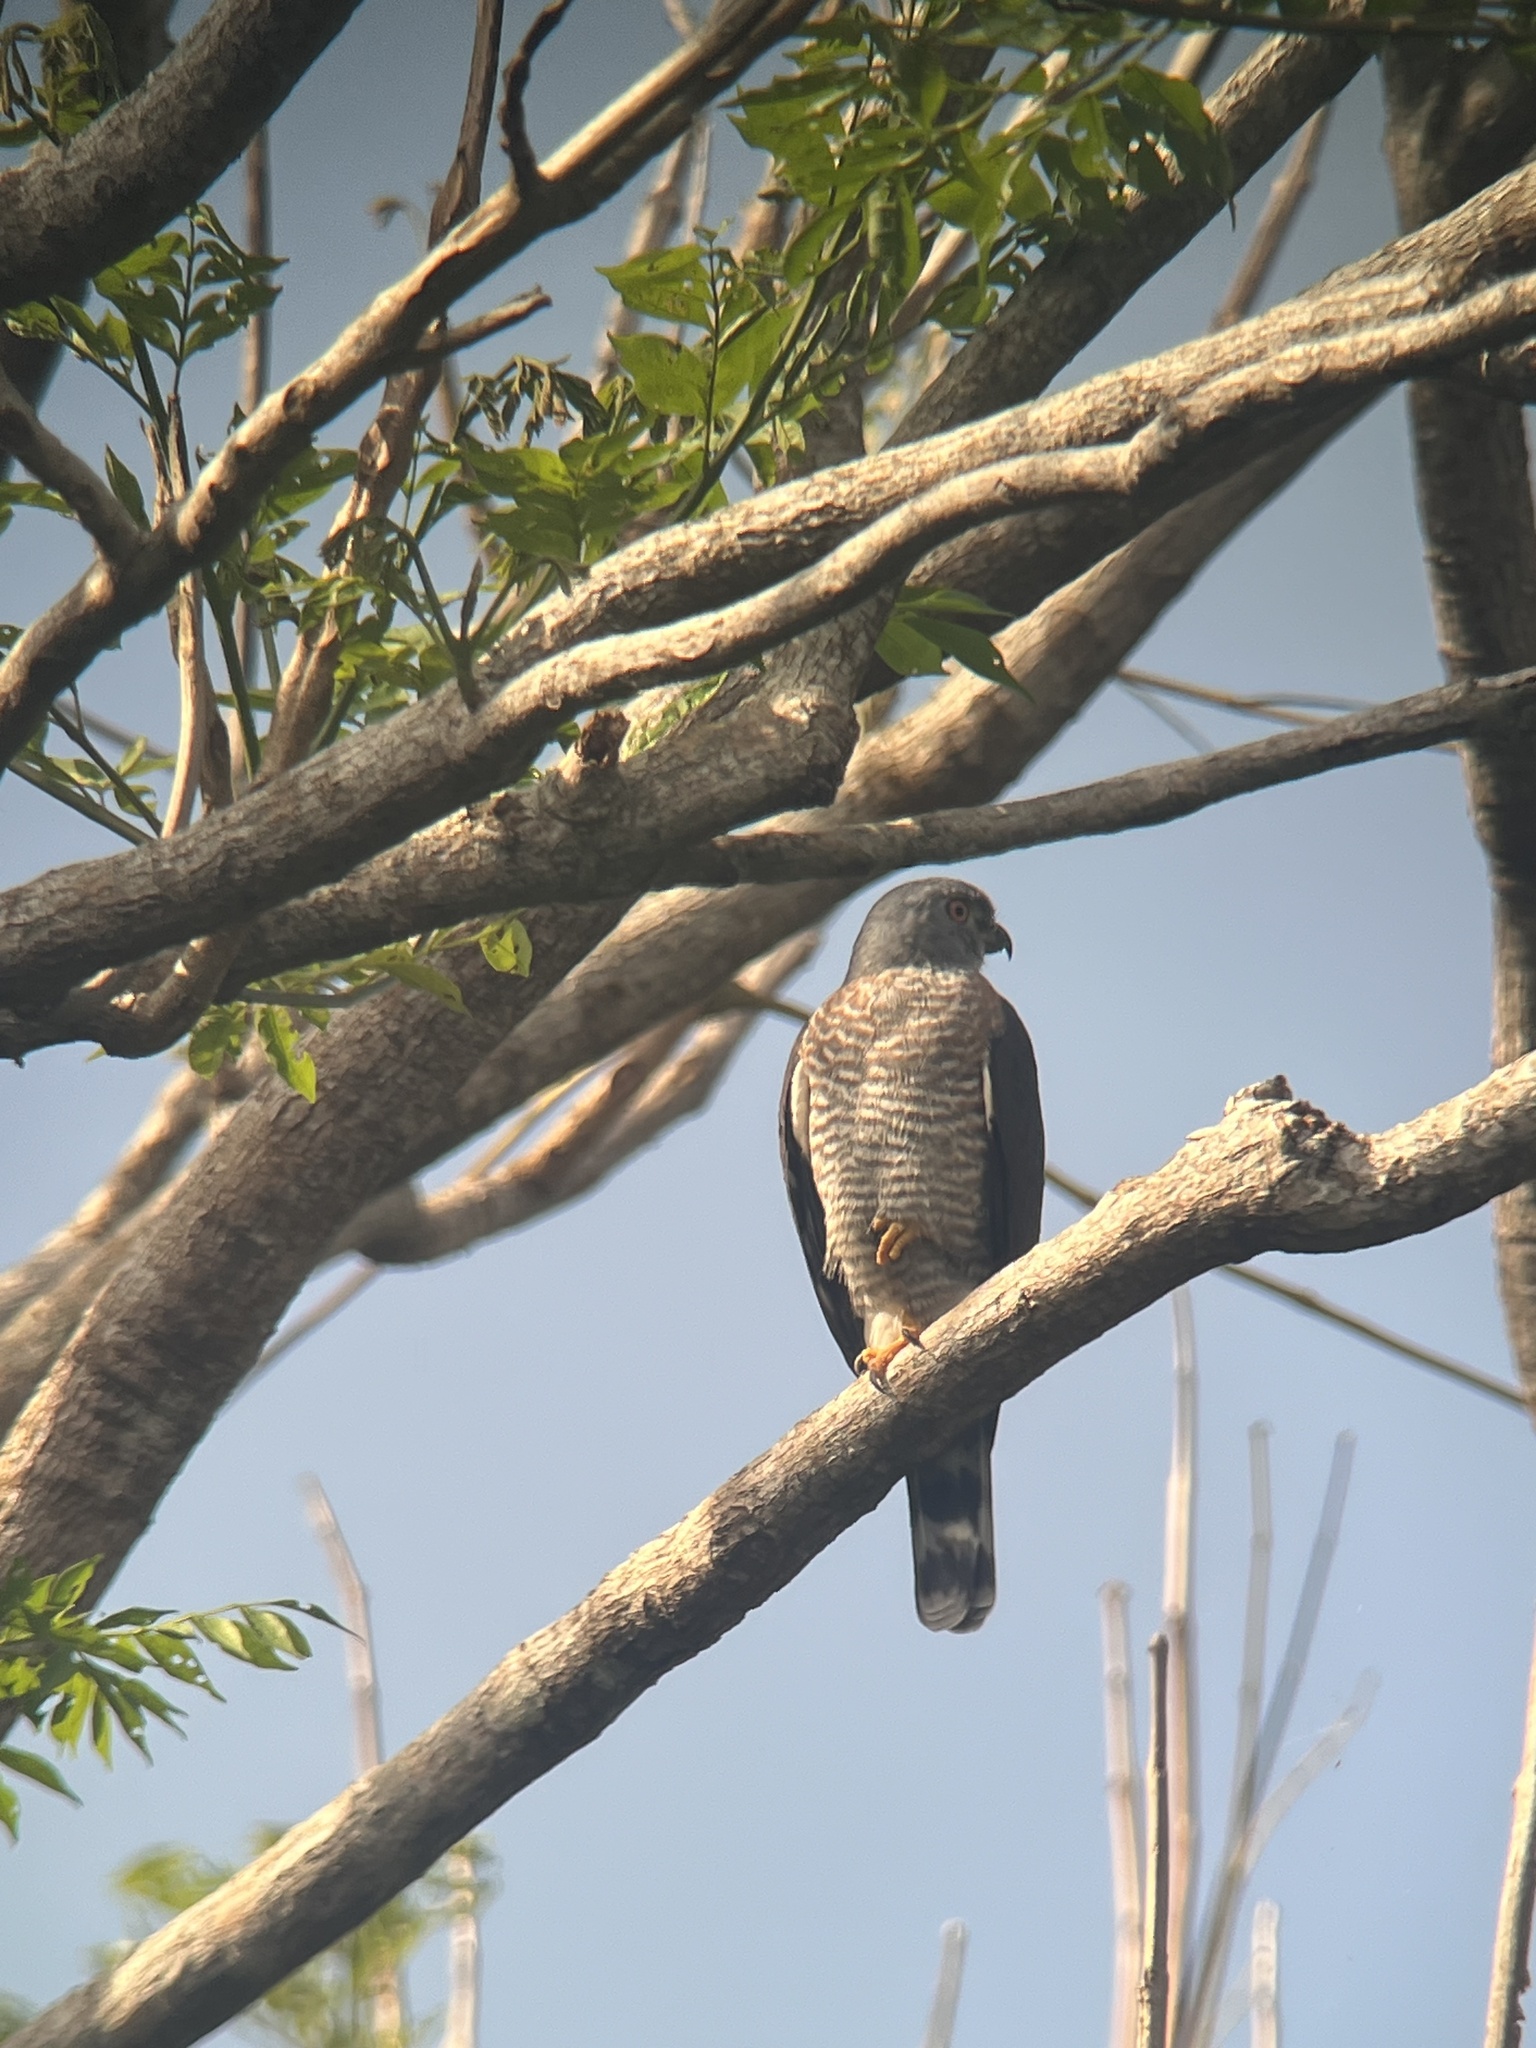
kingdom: Animalia
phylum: Chordata
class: Aves
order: Accipitriformes
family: Accipitridae
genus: Harpagus
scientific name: Harpagus bidentatus
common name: Double-toothed kite
